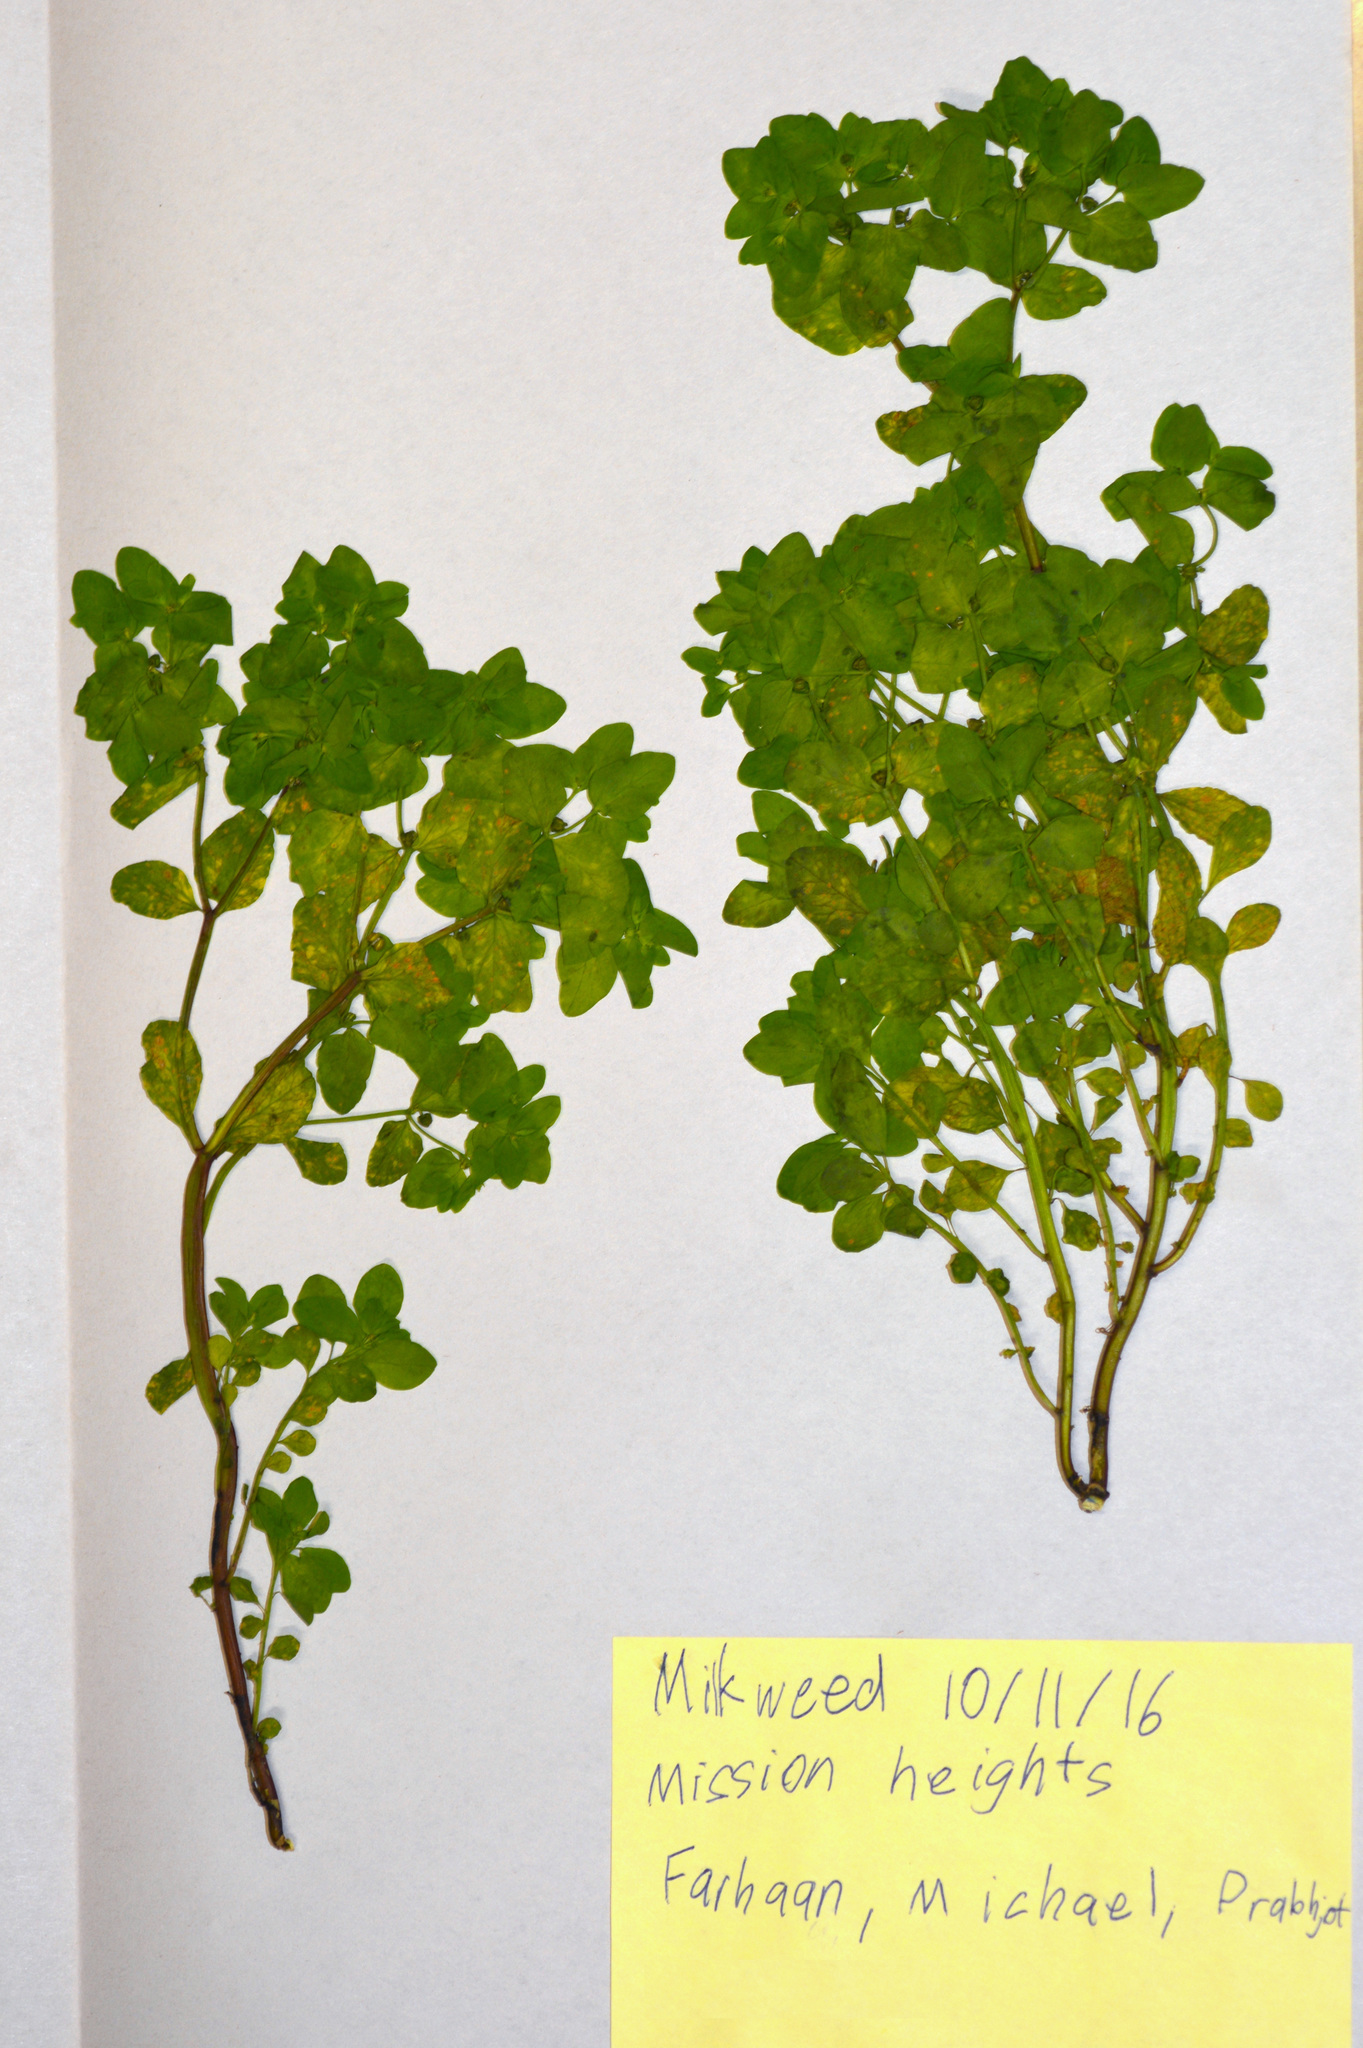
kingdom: Plantae
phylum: Tracheophyta
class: Magnoliopsida
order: Malpighiales
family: Euphorbiaceae
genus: Euphorbia
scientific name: Euphorbia peplus
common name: Petty spurge
